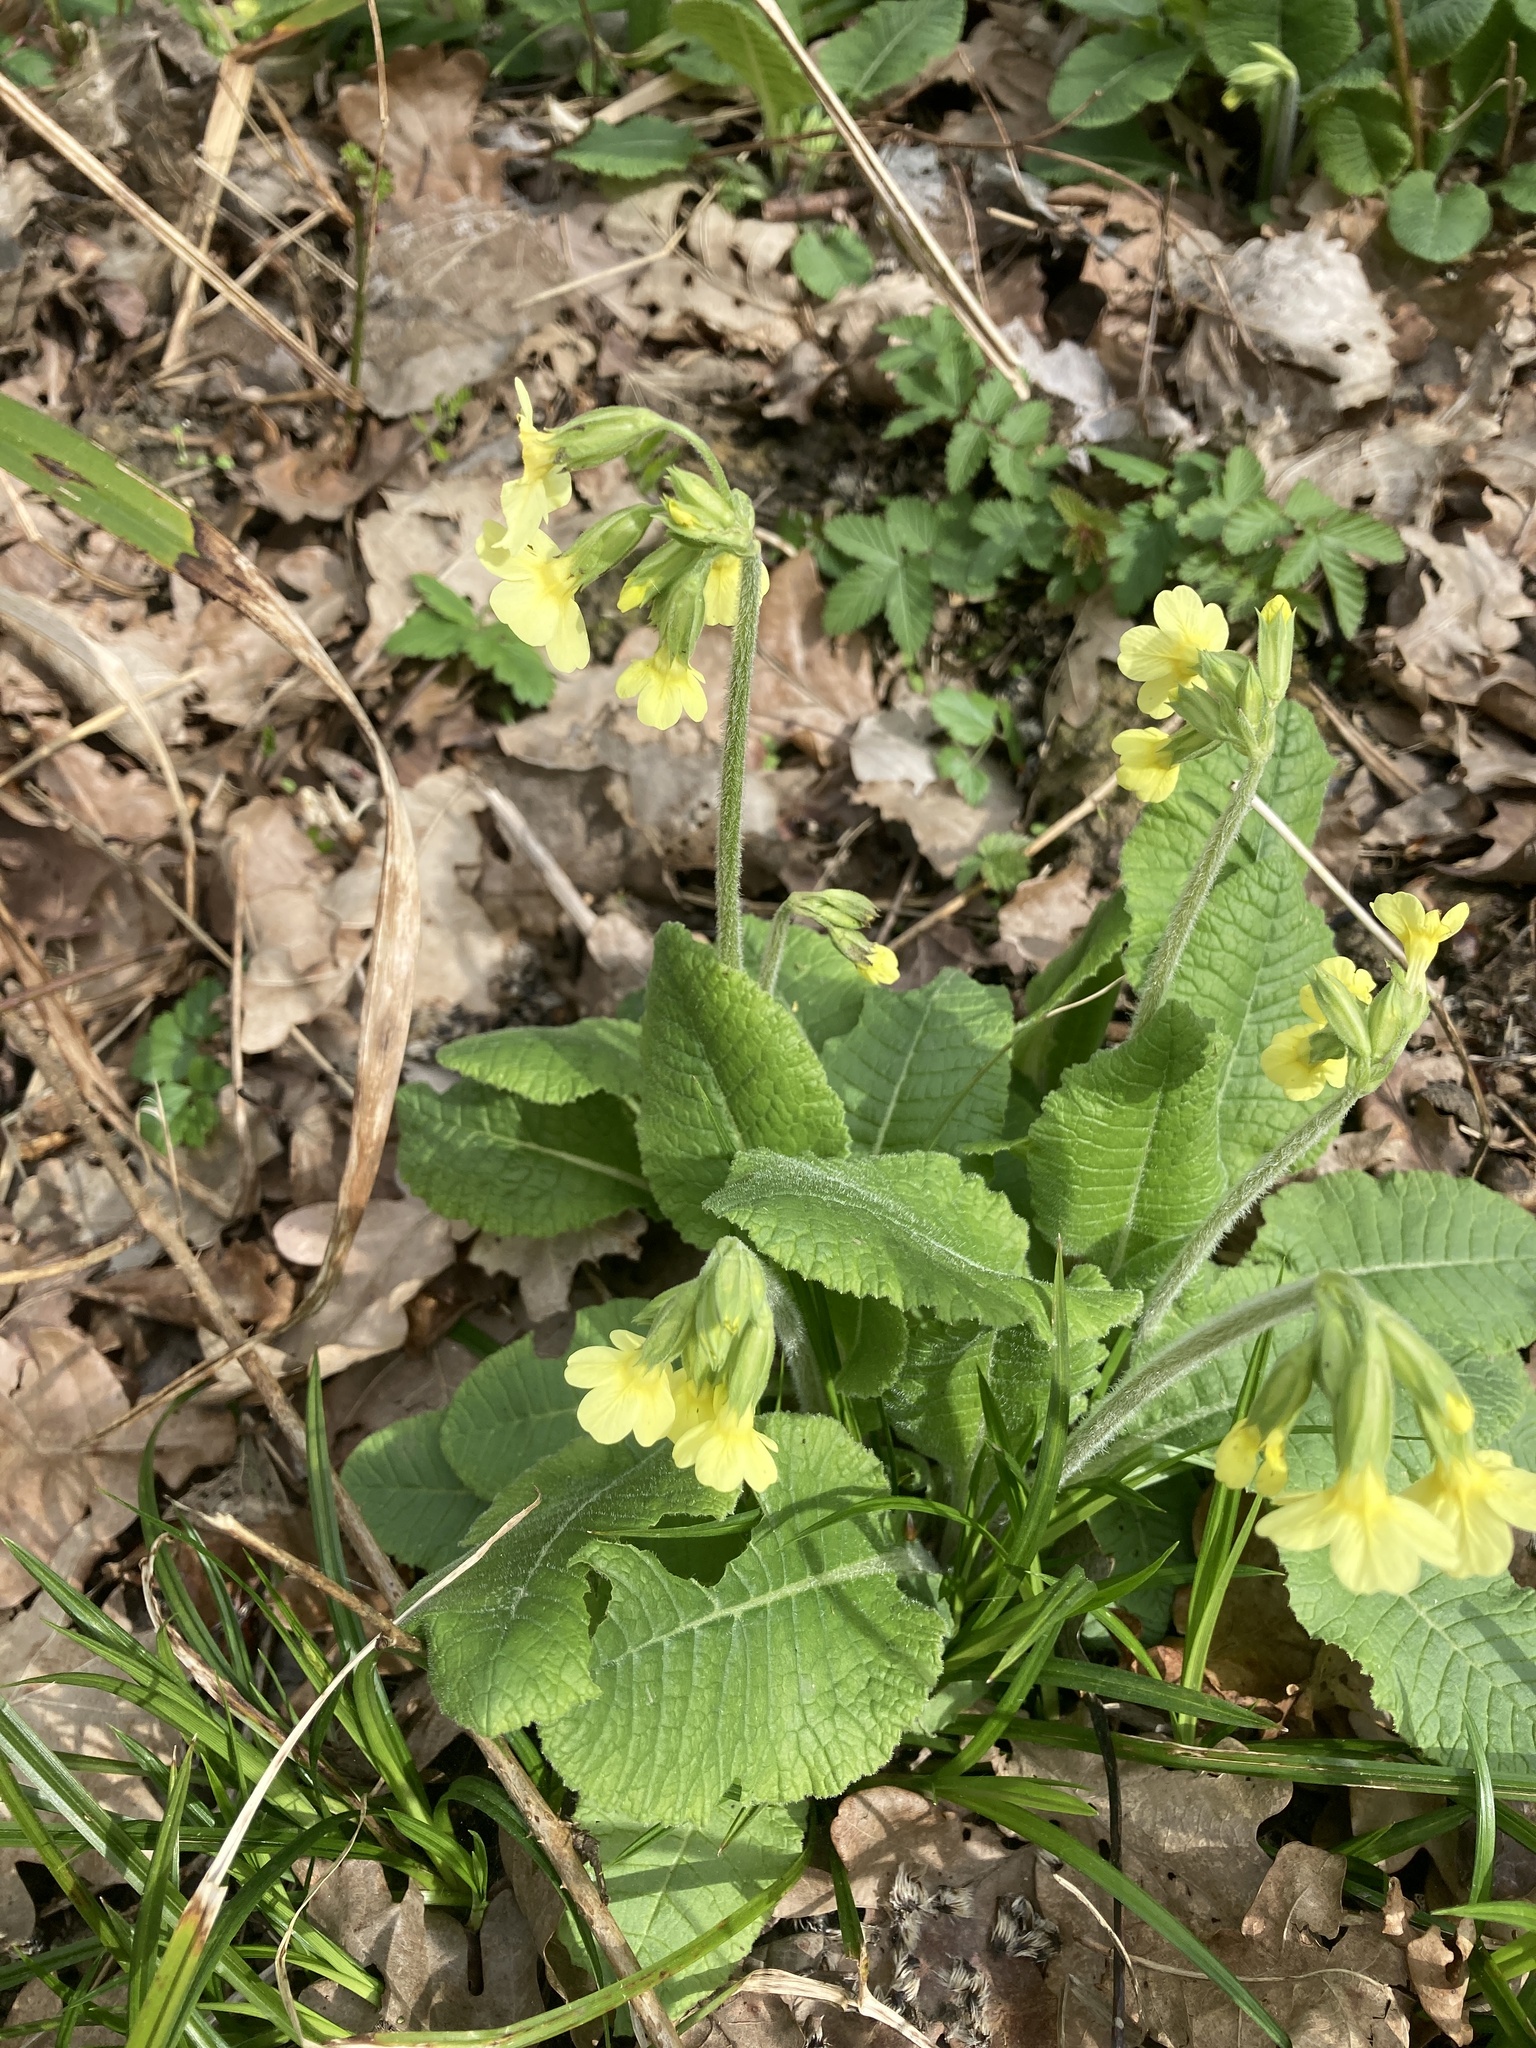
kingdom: Plantae
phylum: Tracheophyta
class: Magnoliopsida
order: Ericales
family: Primulaceae
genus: Primula
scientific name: Primula elatior
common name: Oxlip
